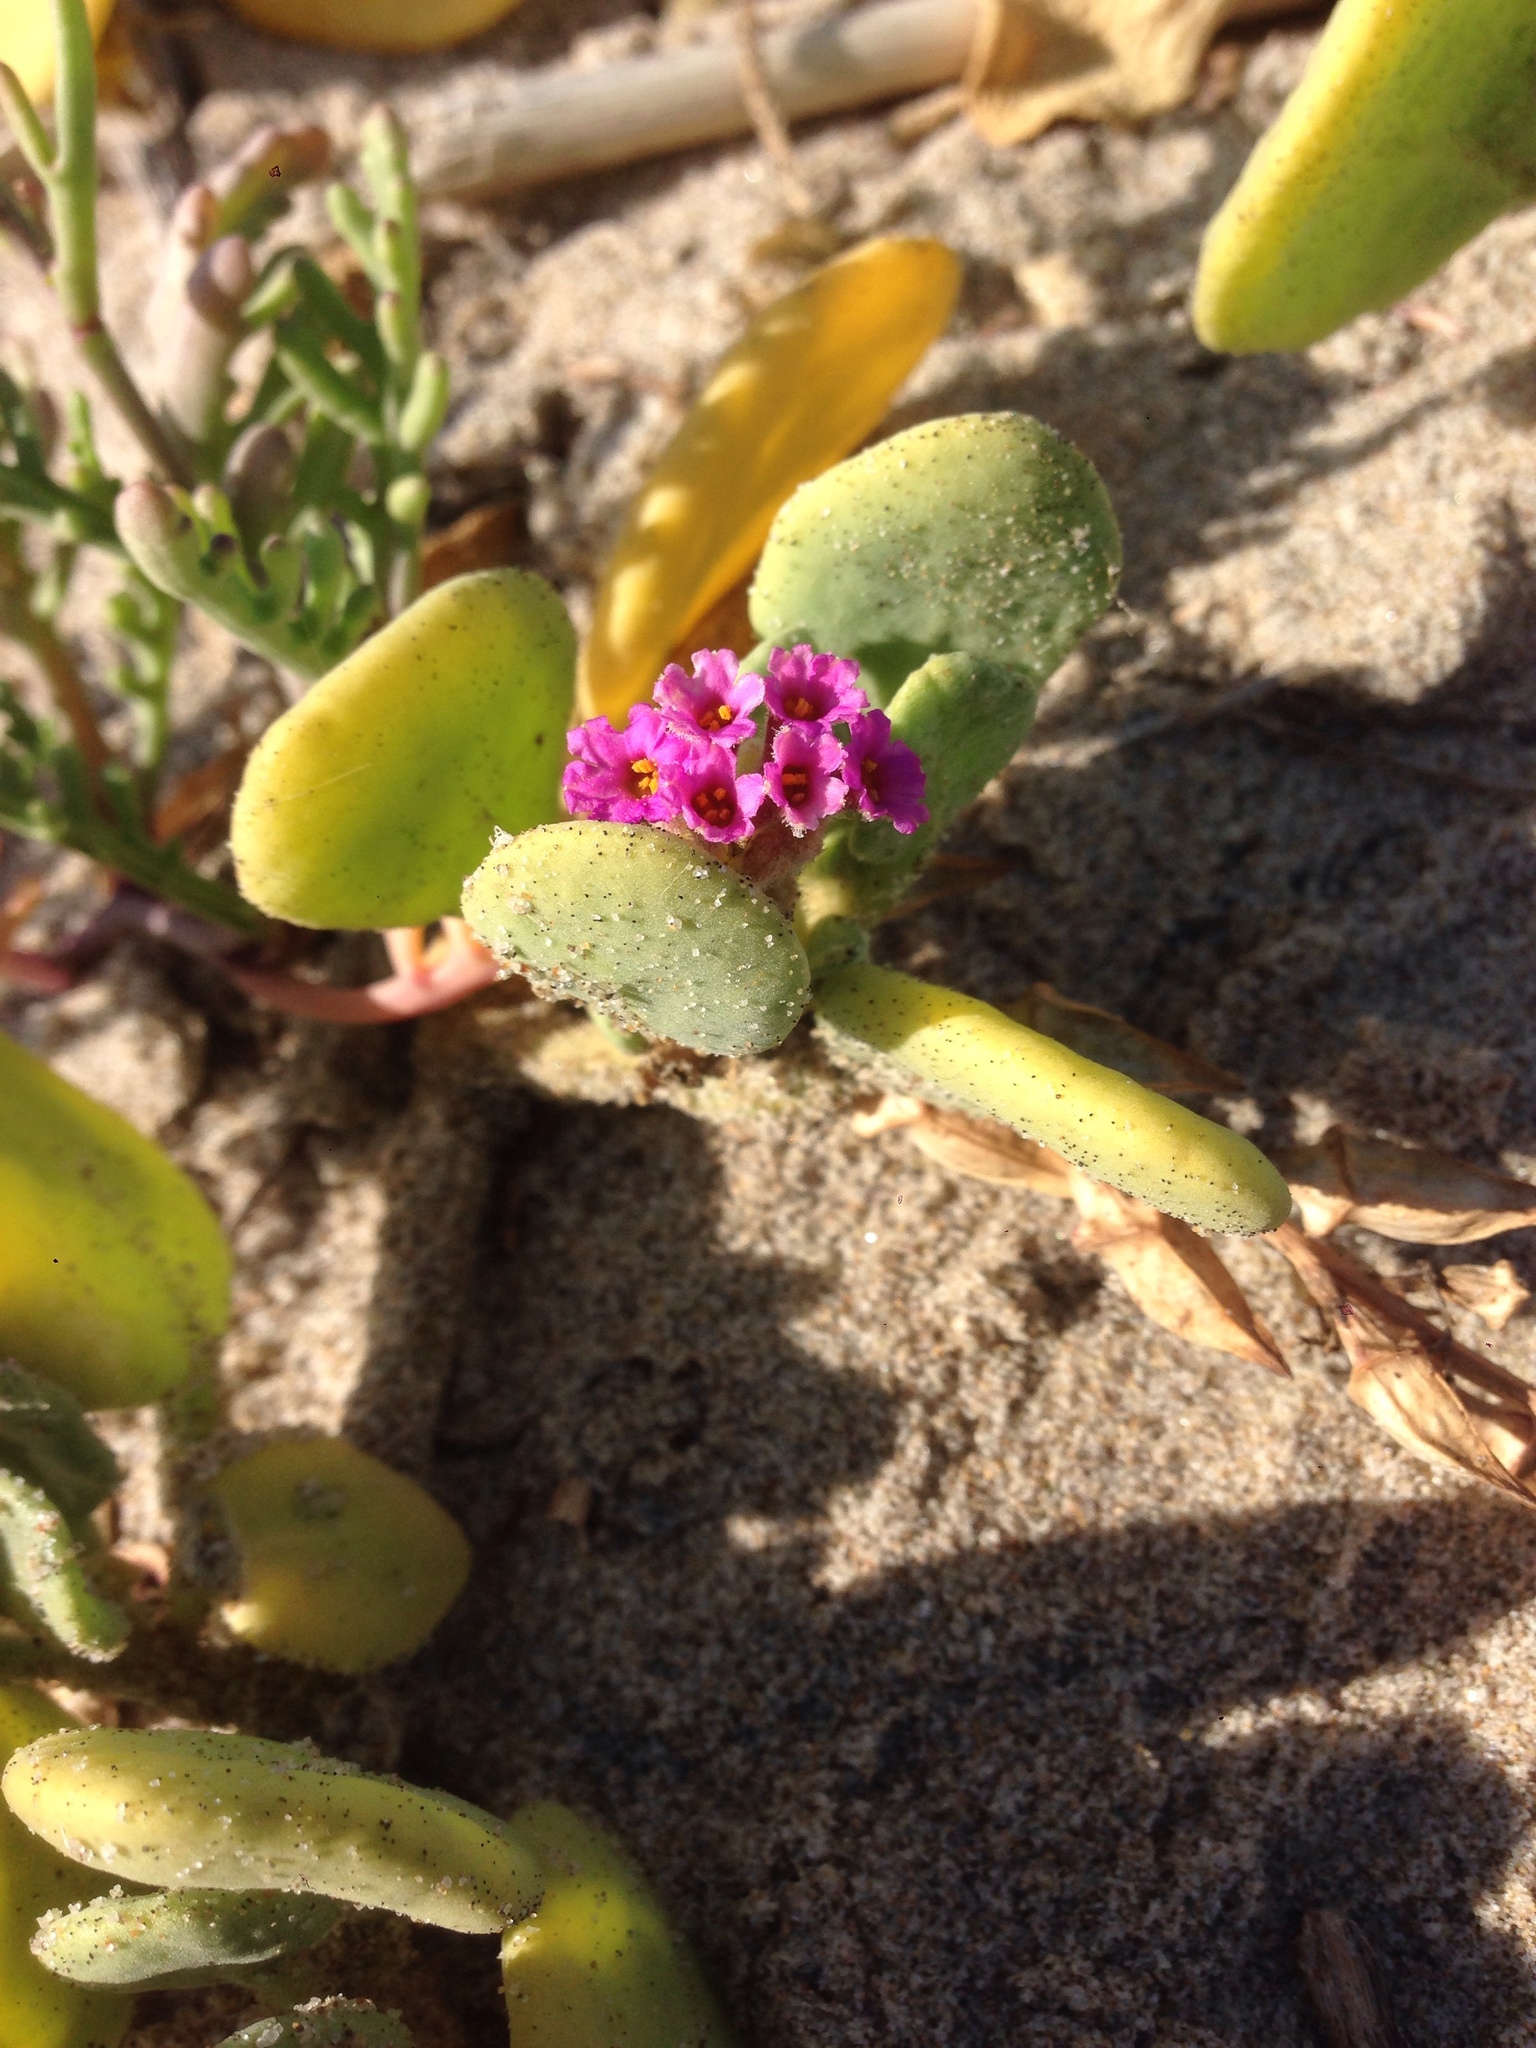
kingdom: Plantae
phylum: Tracheophyta
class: Magnoliopsida
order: Caryophyllales
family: Nyctaginaceae
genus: Abronia
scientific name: Abronia maritima
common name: Red sand-verbena
